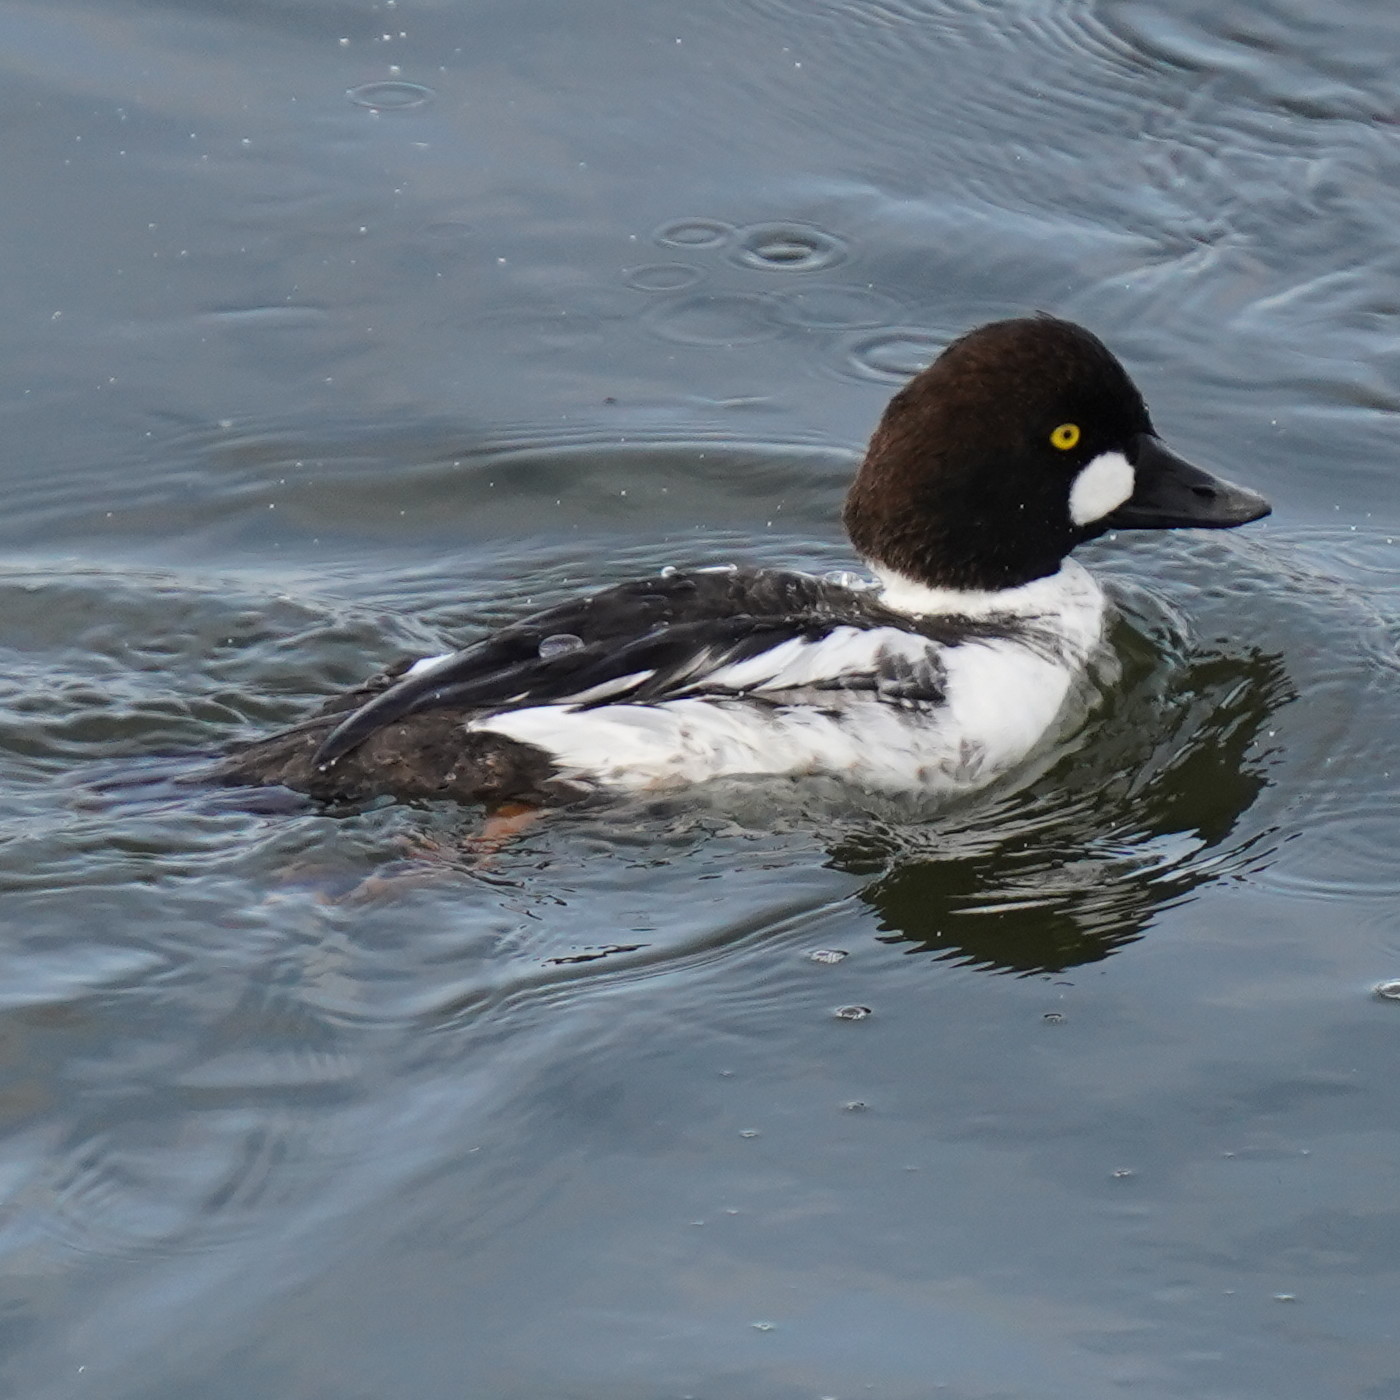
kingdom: Animalia
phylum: Chordata
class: Aves
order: Anseriformes
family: Anatidae
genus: Bucephala
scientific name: Bucephala clangula
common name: Common goldeneye
